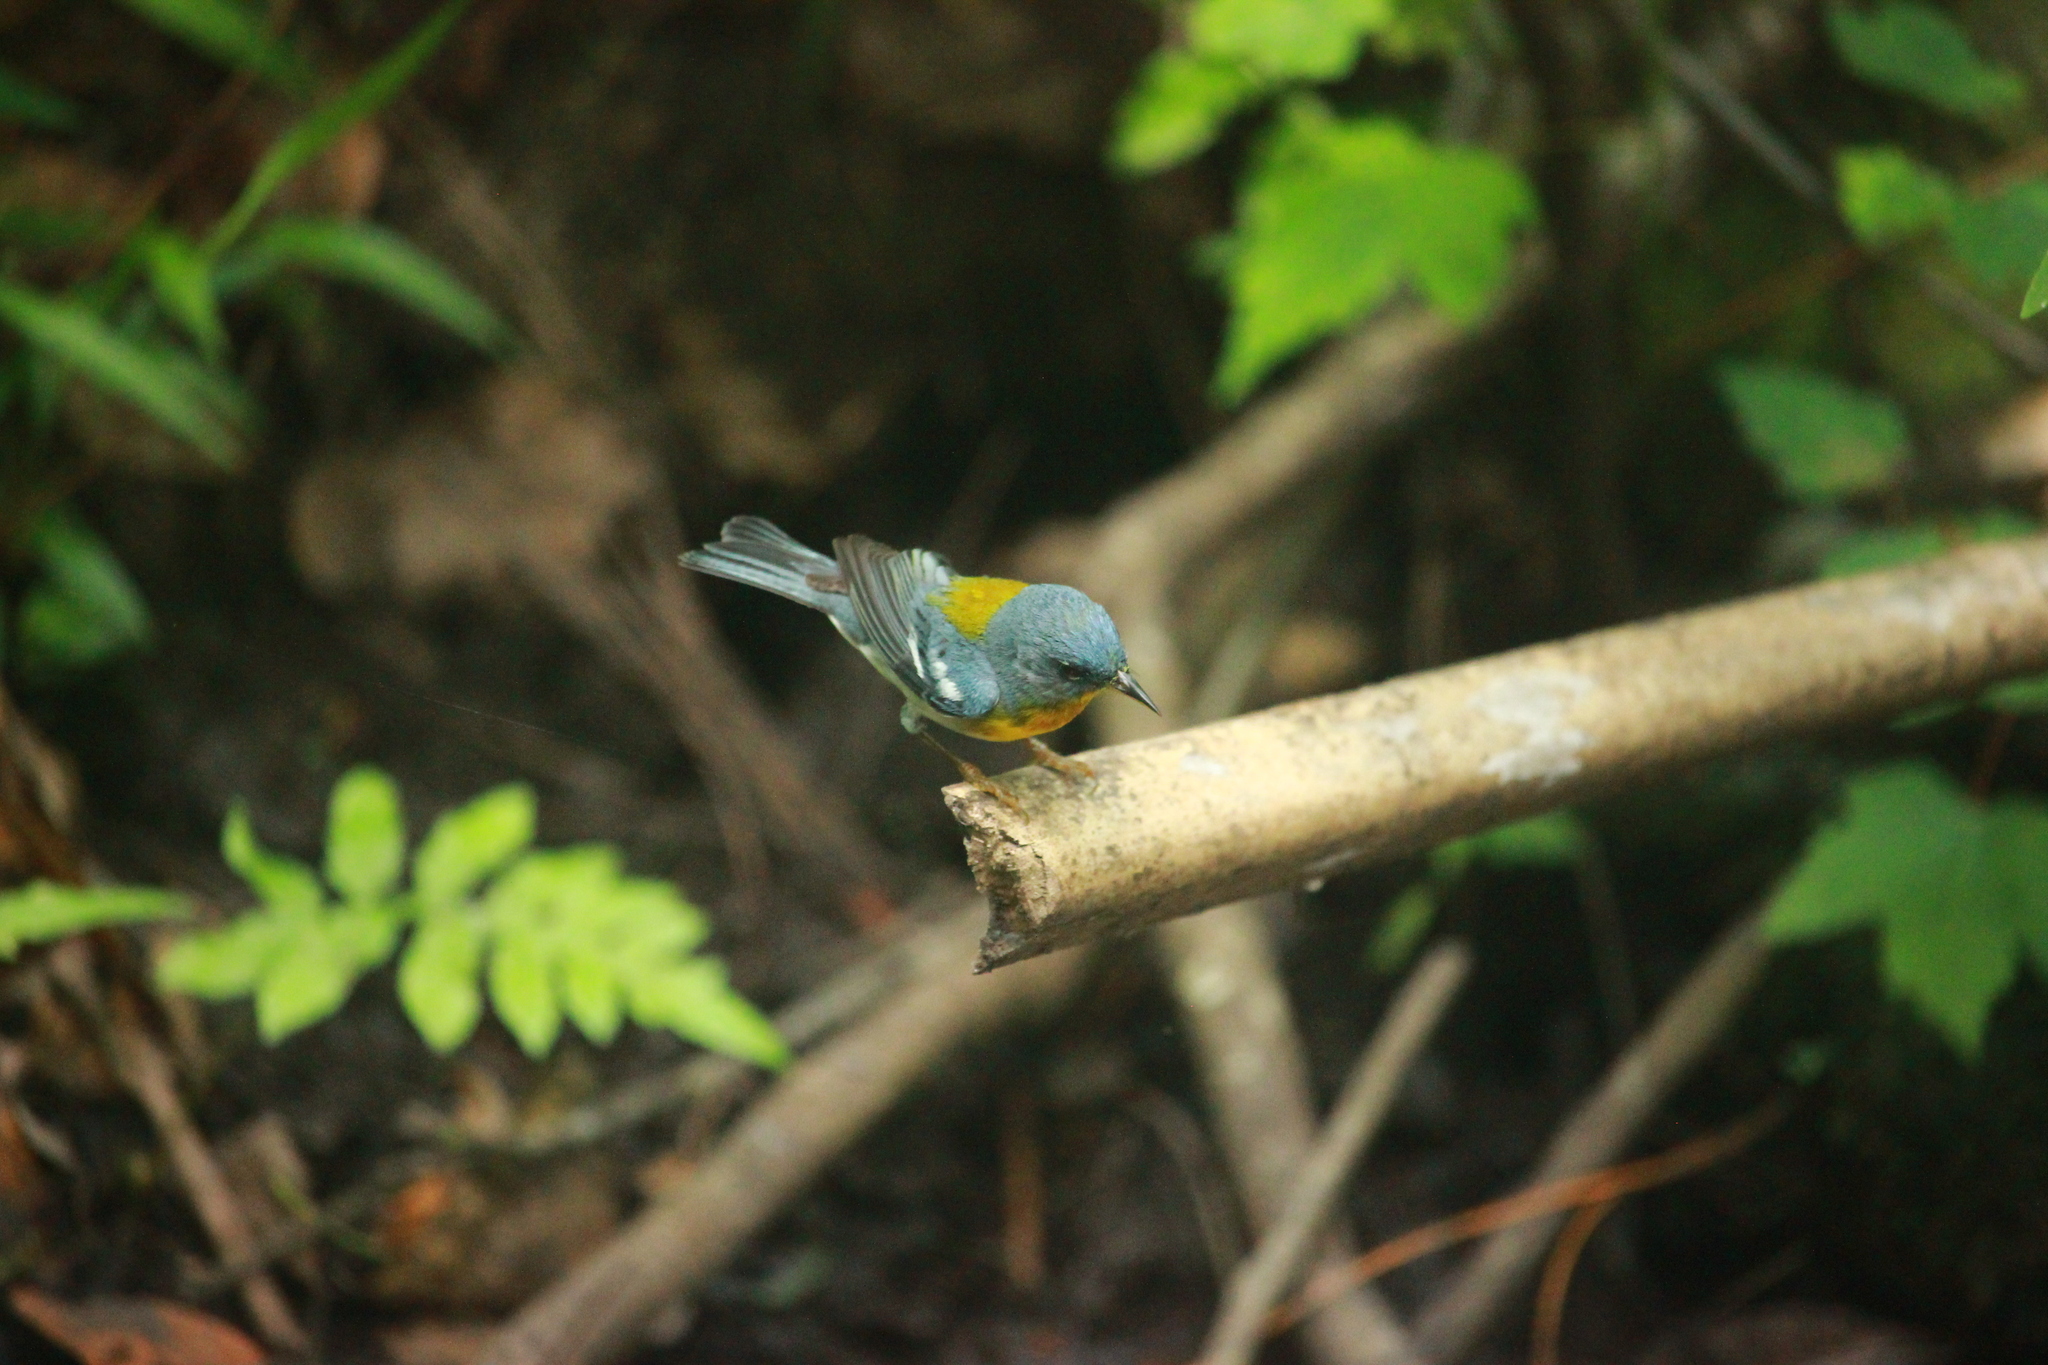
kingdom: Animalia
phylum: Chordata
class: Aves
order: Passeriformes
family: Parulidae
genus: Setophaga
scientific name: Setophaga americana
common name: Northern parula
